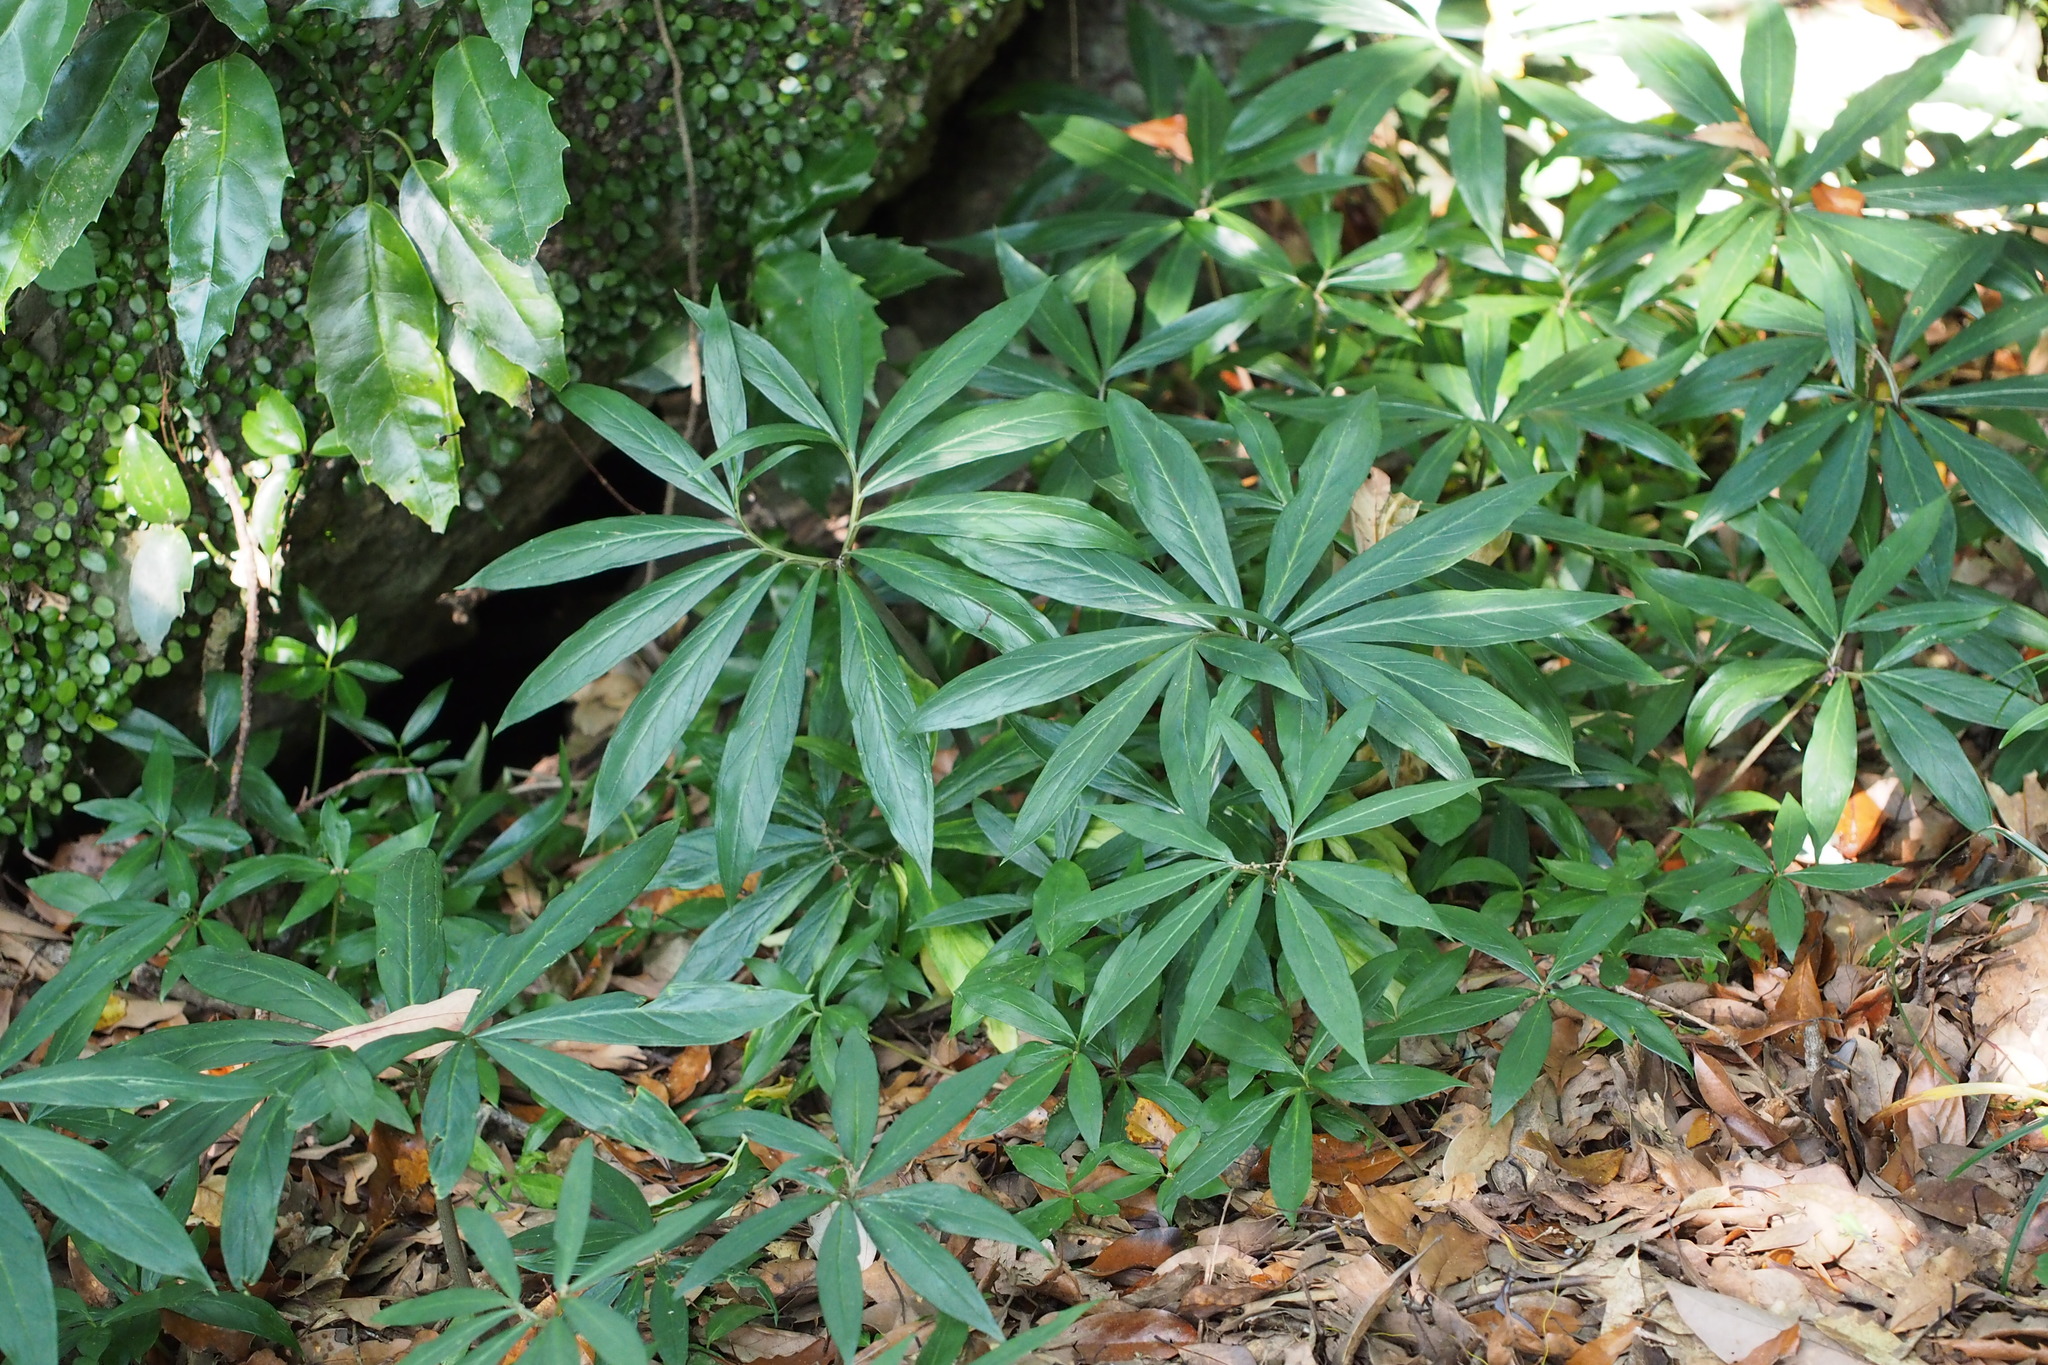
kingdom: Plantae
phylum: Tracheophyta
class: Liliopsida
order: Alismatales
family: Araceae
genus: Arisaema
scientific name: Arisaema thunbergii
